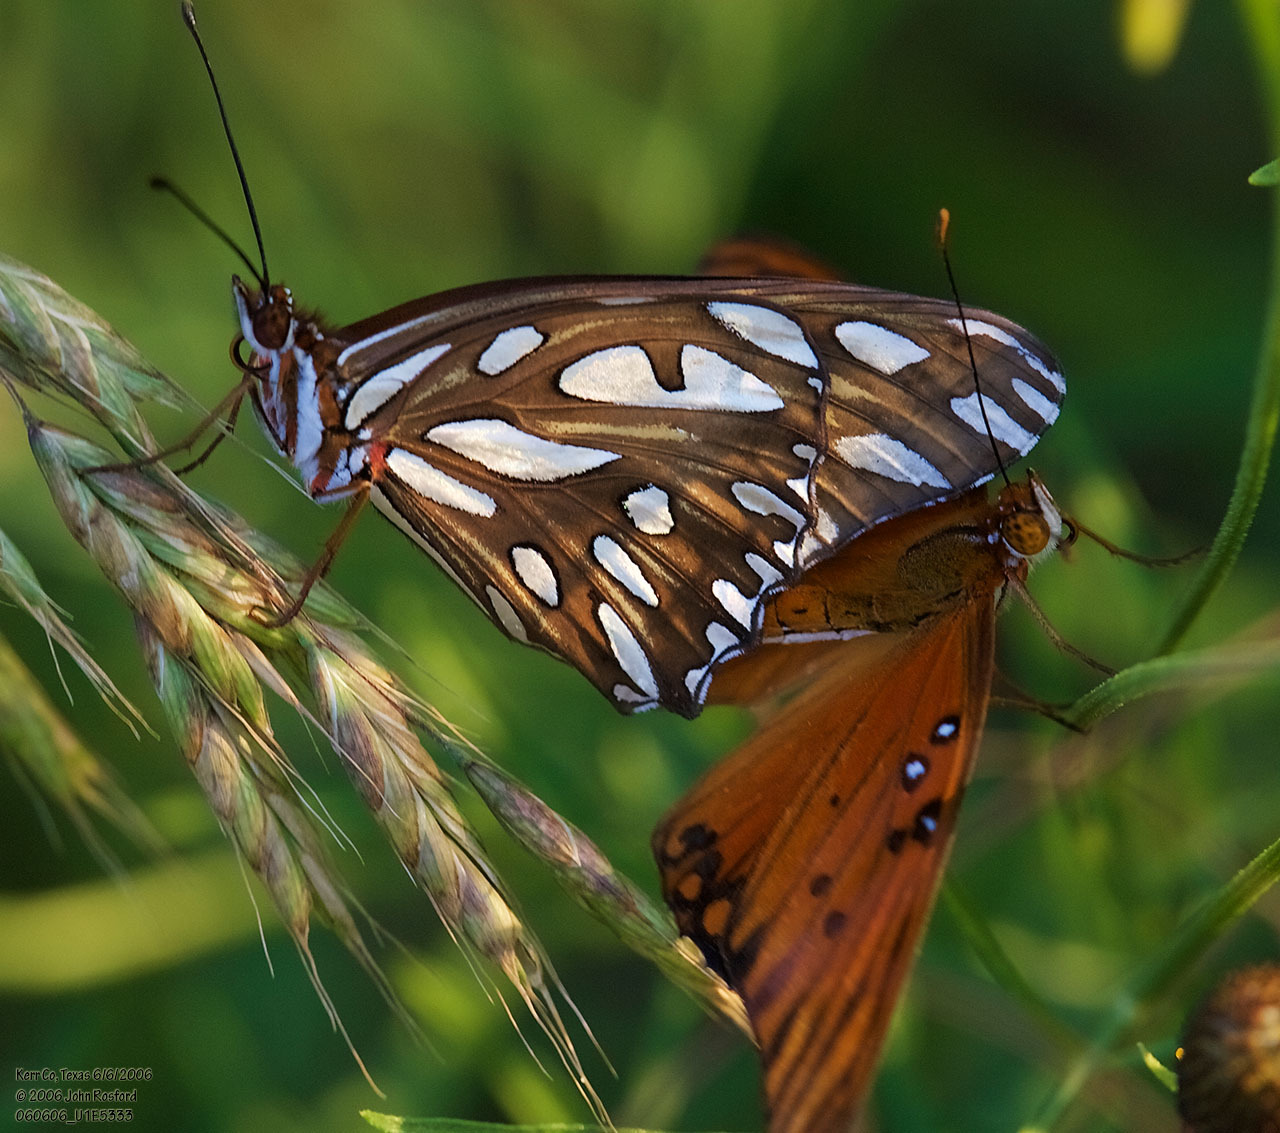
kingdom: Animalia
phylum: Arthropoda
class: Insecta
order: Lepidoptera
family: Nymphalidae
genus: Dione
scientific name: Dione vanillae
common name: Gulf fritillary
